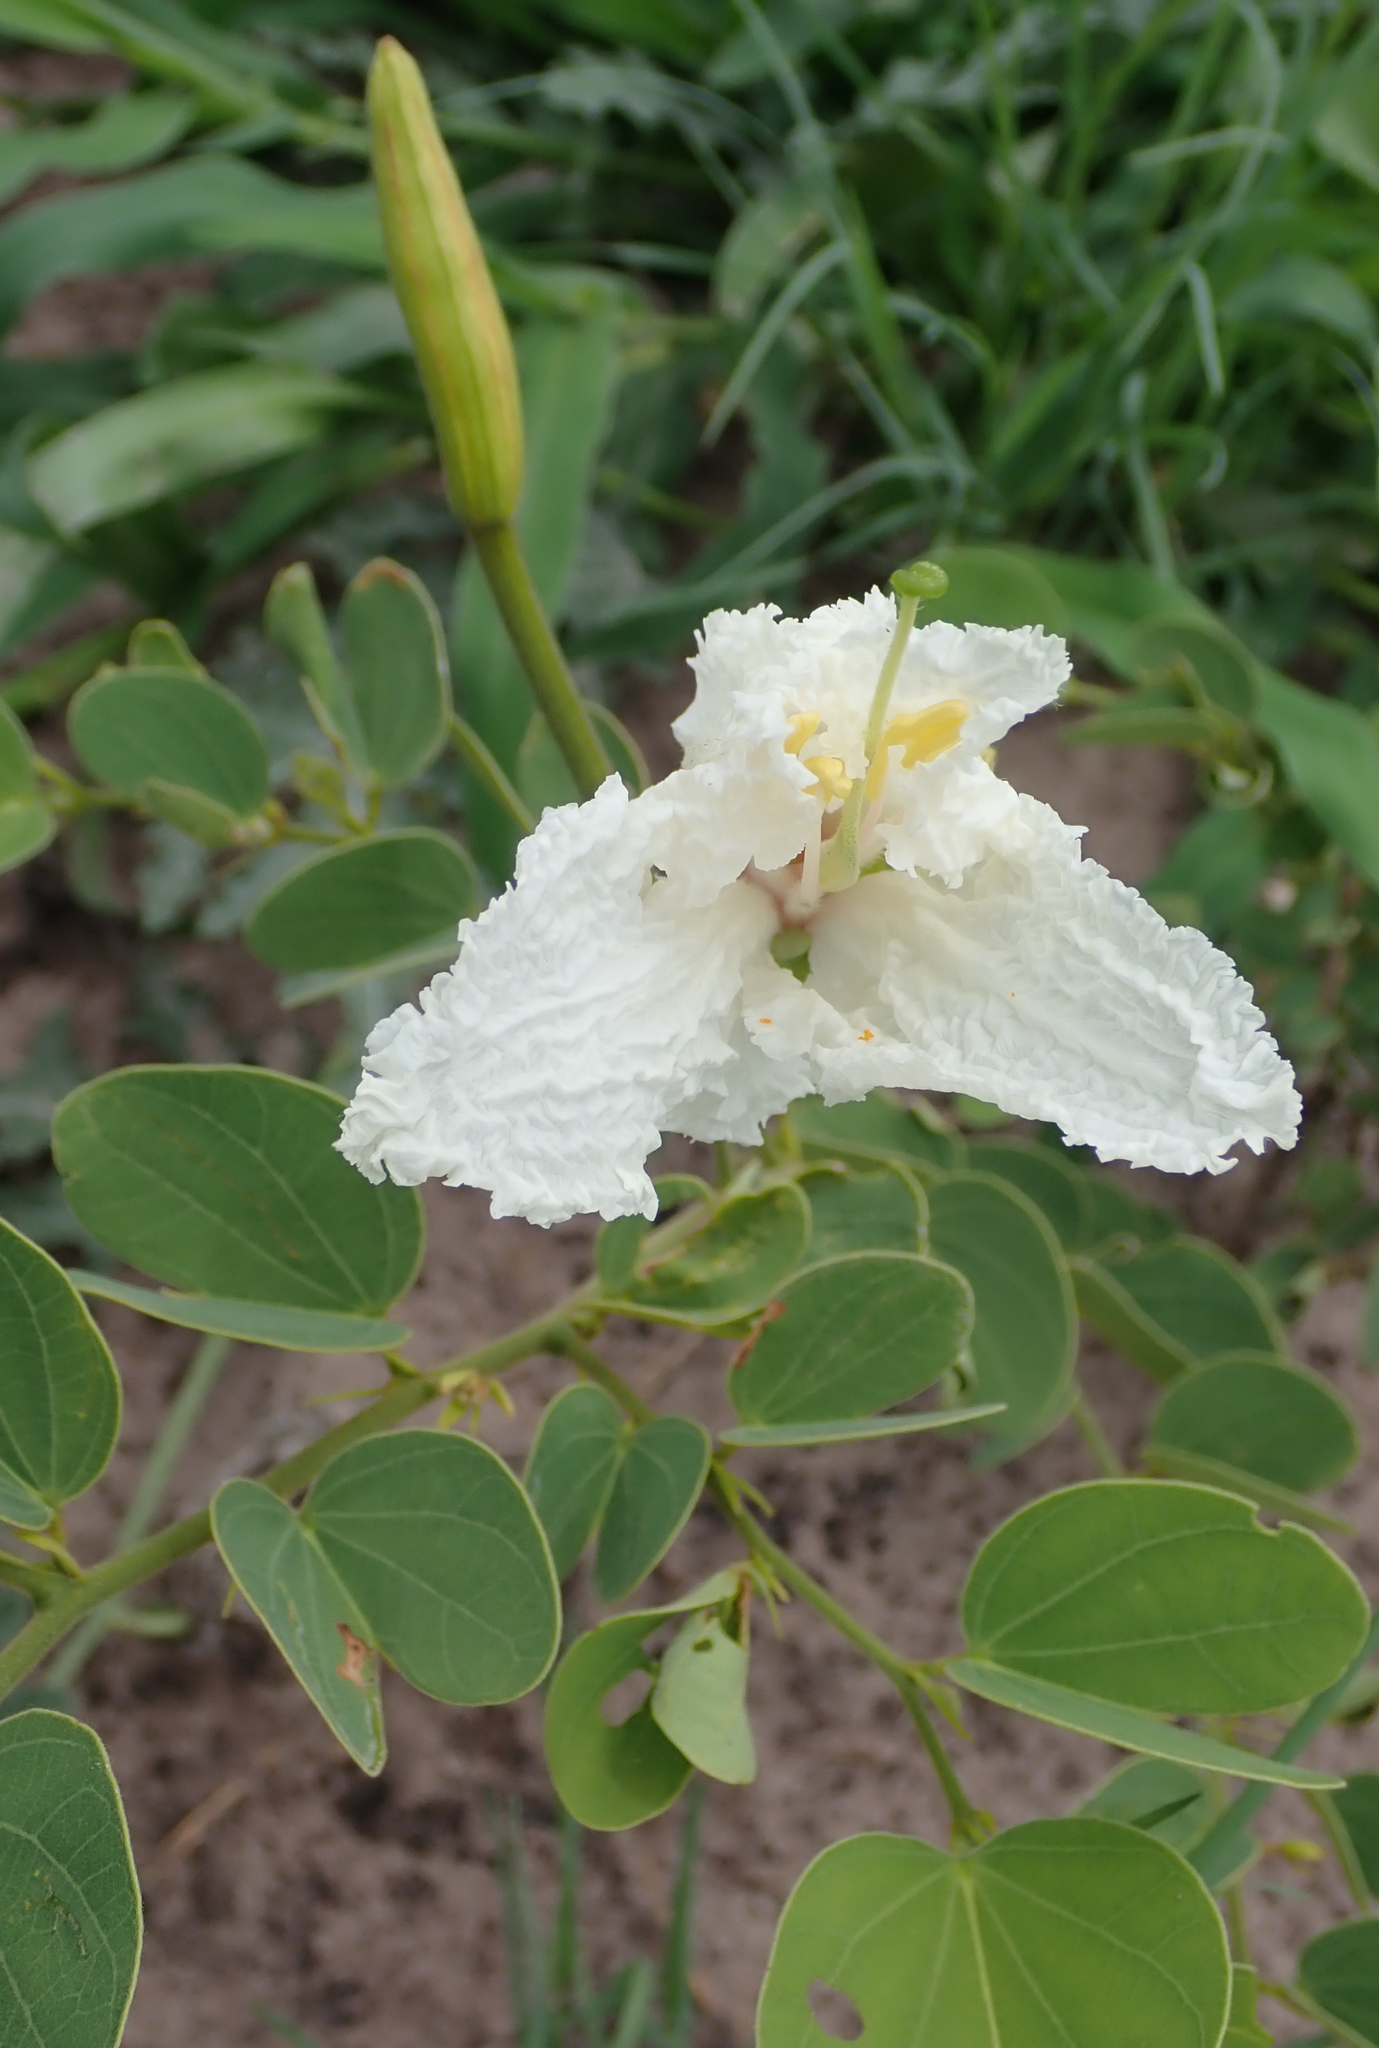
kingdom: Plantae
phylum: Tracheophyta
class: Magnoliopsida
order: Fabales
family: Fabaceae
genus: Bauhinia
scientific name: Bauhinia macrantha
